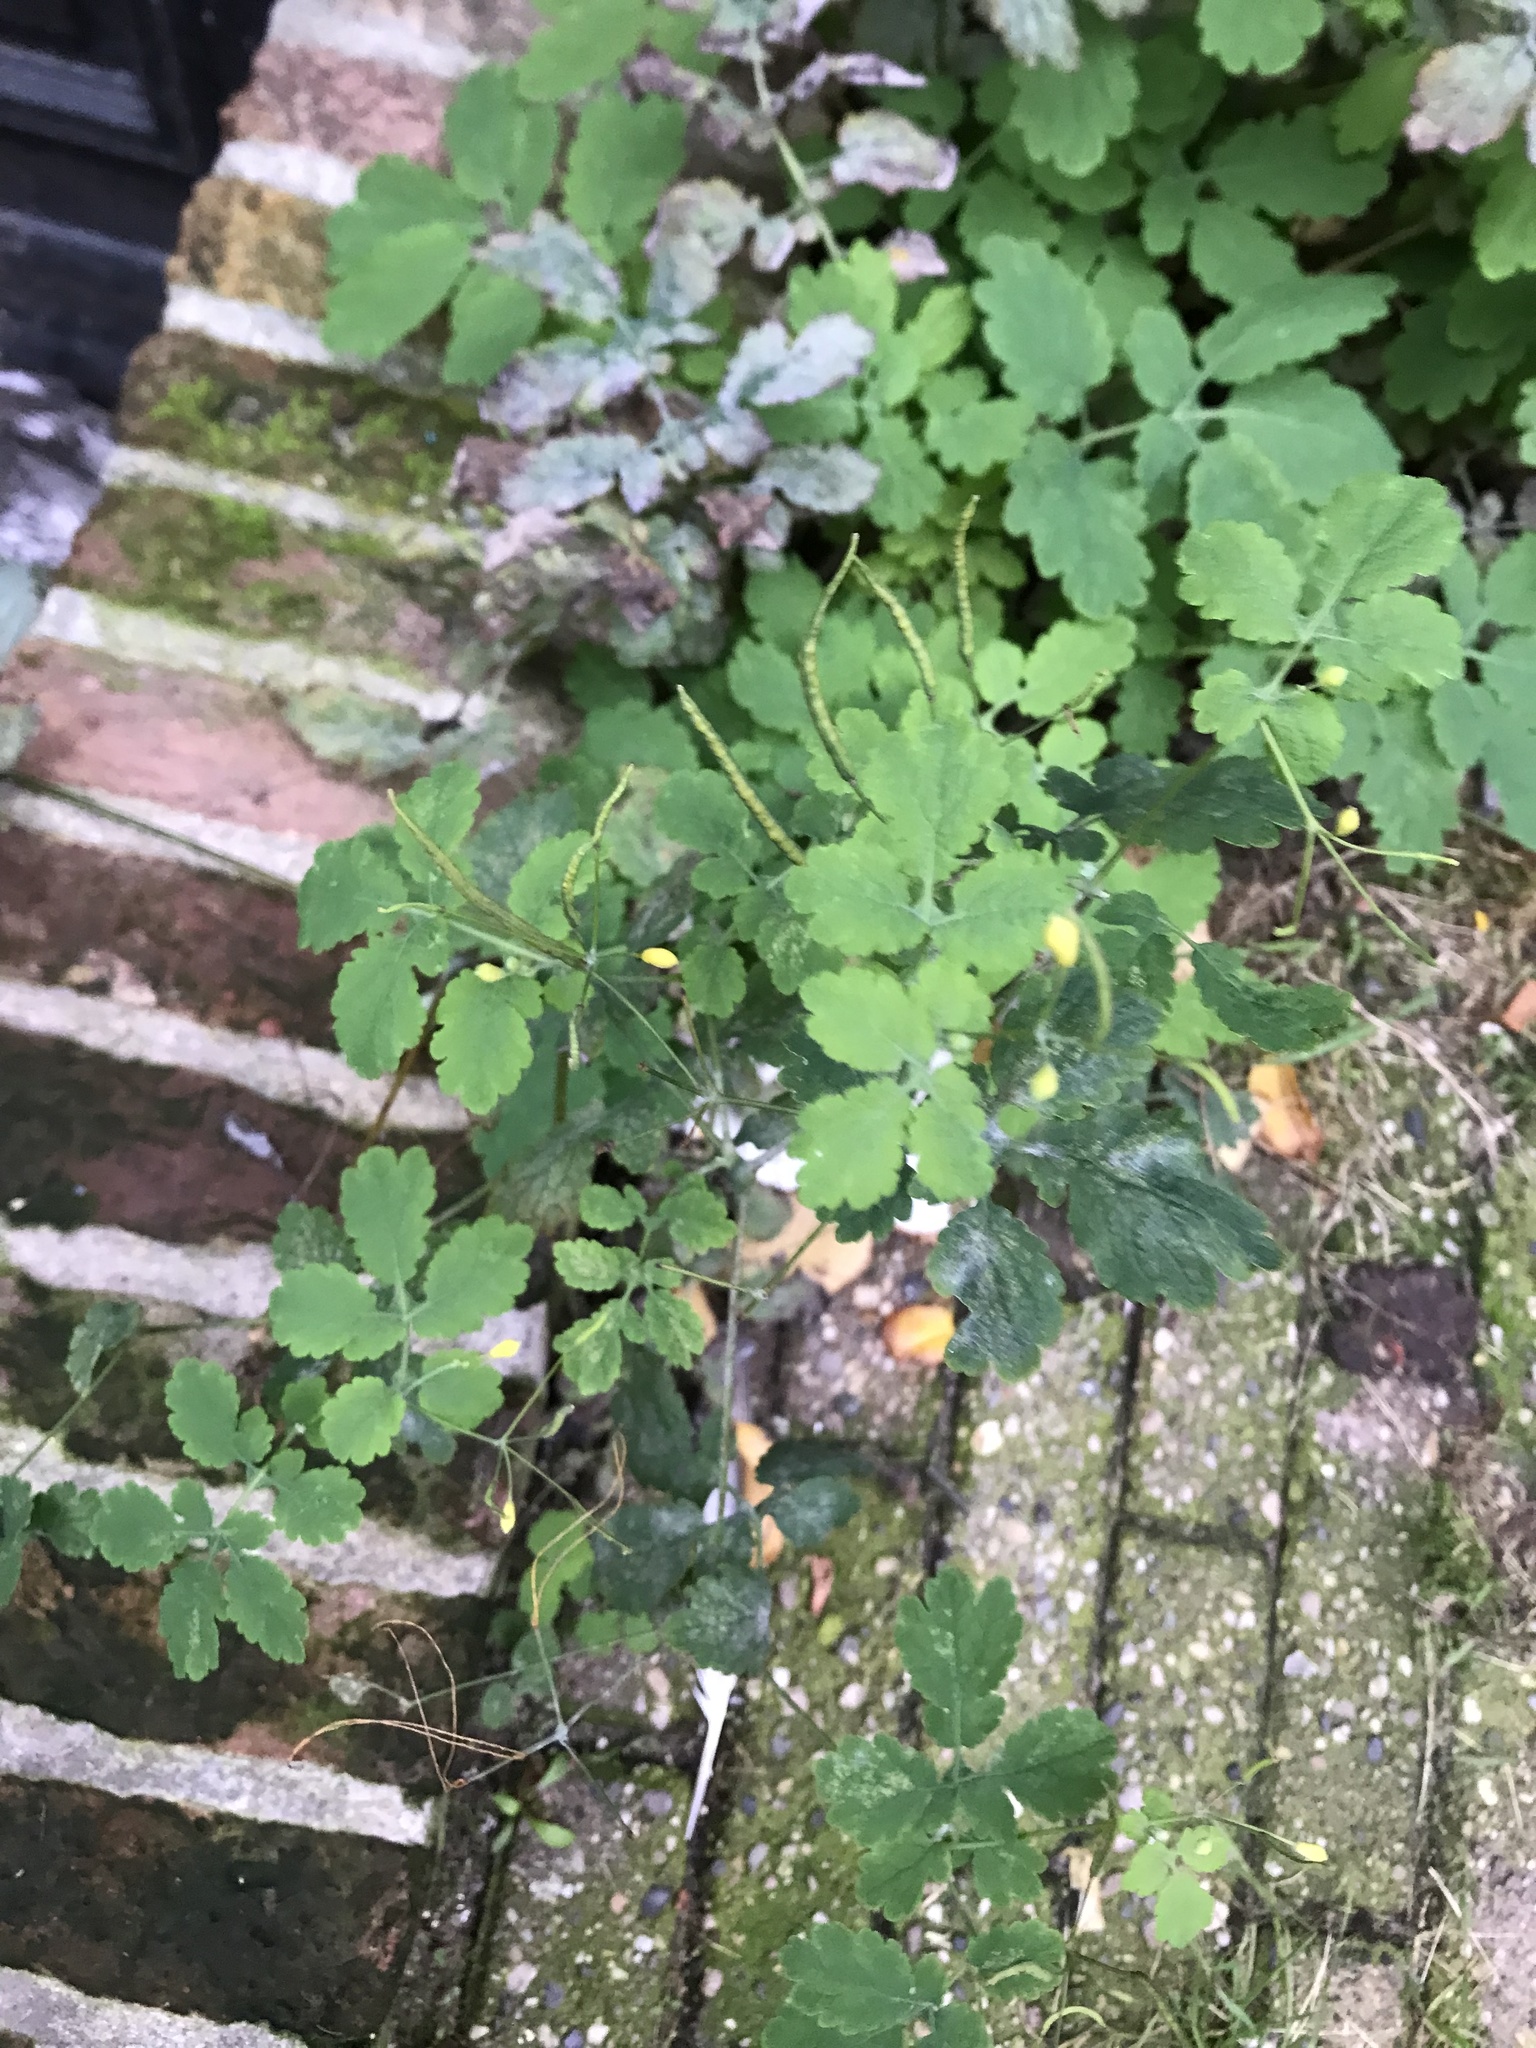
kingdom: Plantae
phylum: Tracheophyta
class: Magnoliopsida
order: Ranunculales
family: Papaveraceae
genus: Chelidonium
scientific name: Chelidonium majus
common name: Greater celandine
